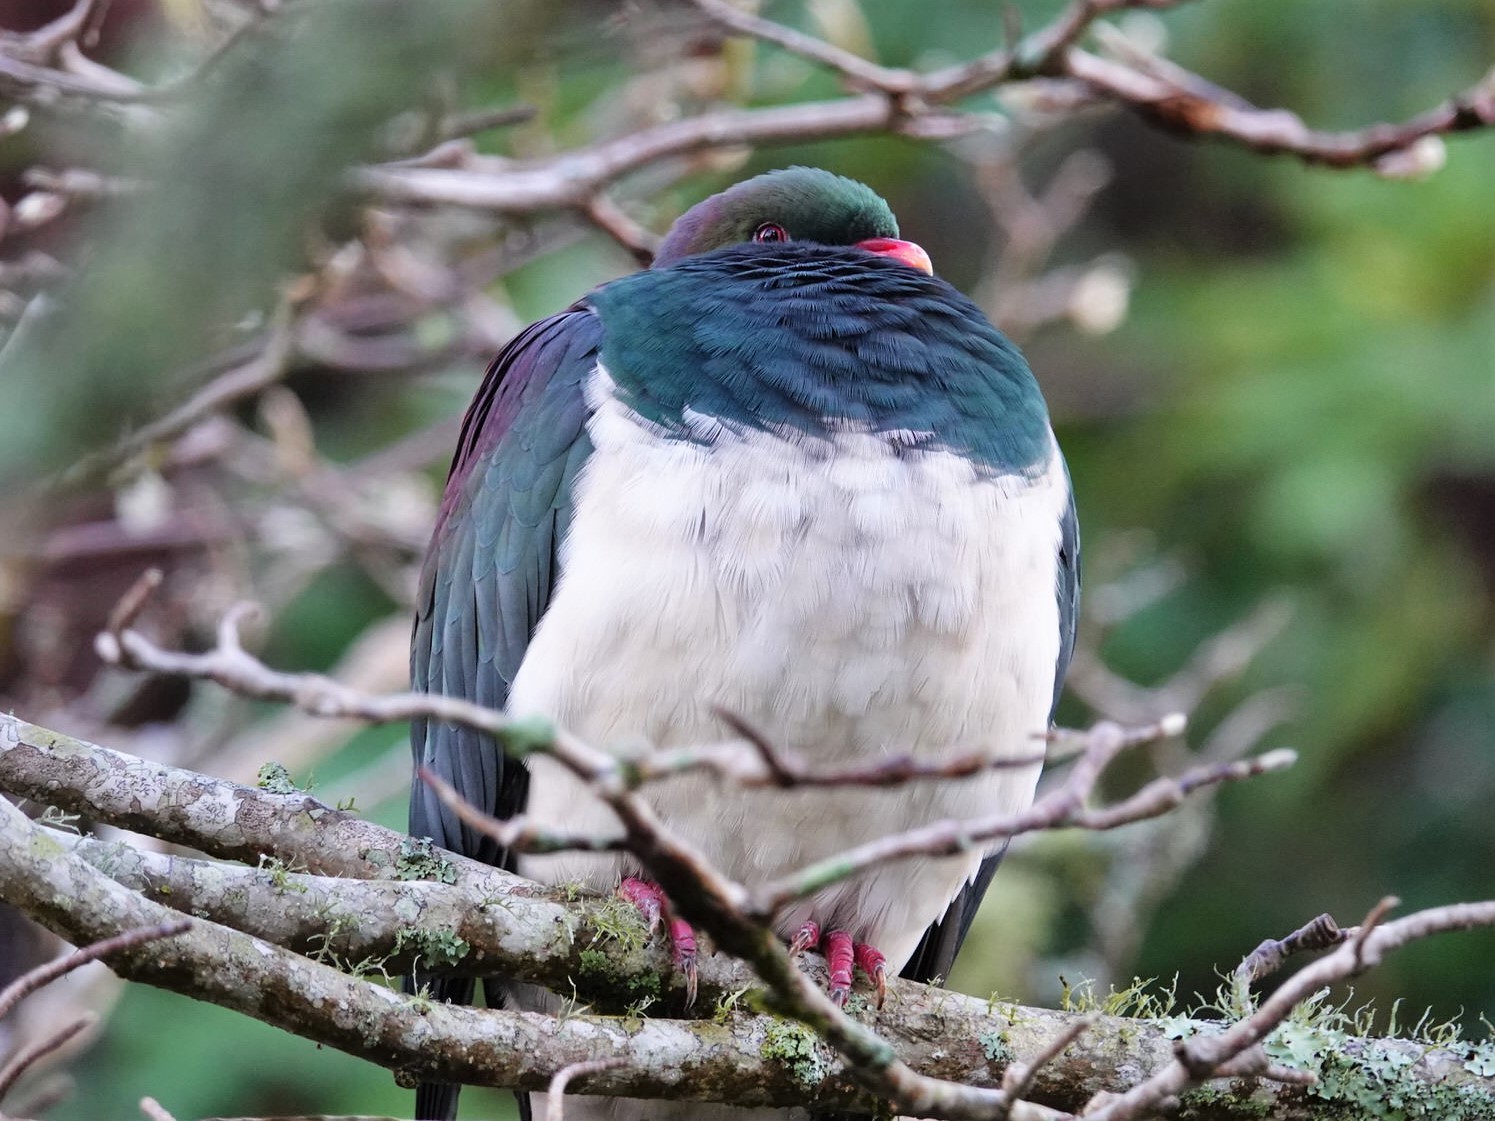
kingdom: Animalia
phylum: Chordata
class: Aves
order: Columbiformes
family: Columbidae
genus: Hemiphaga
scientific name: Hemiphaga novaeseelandiae
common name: New zealand pigeon
